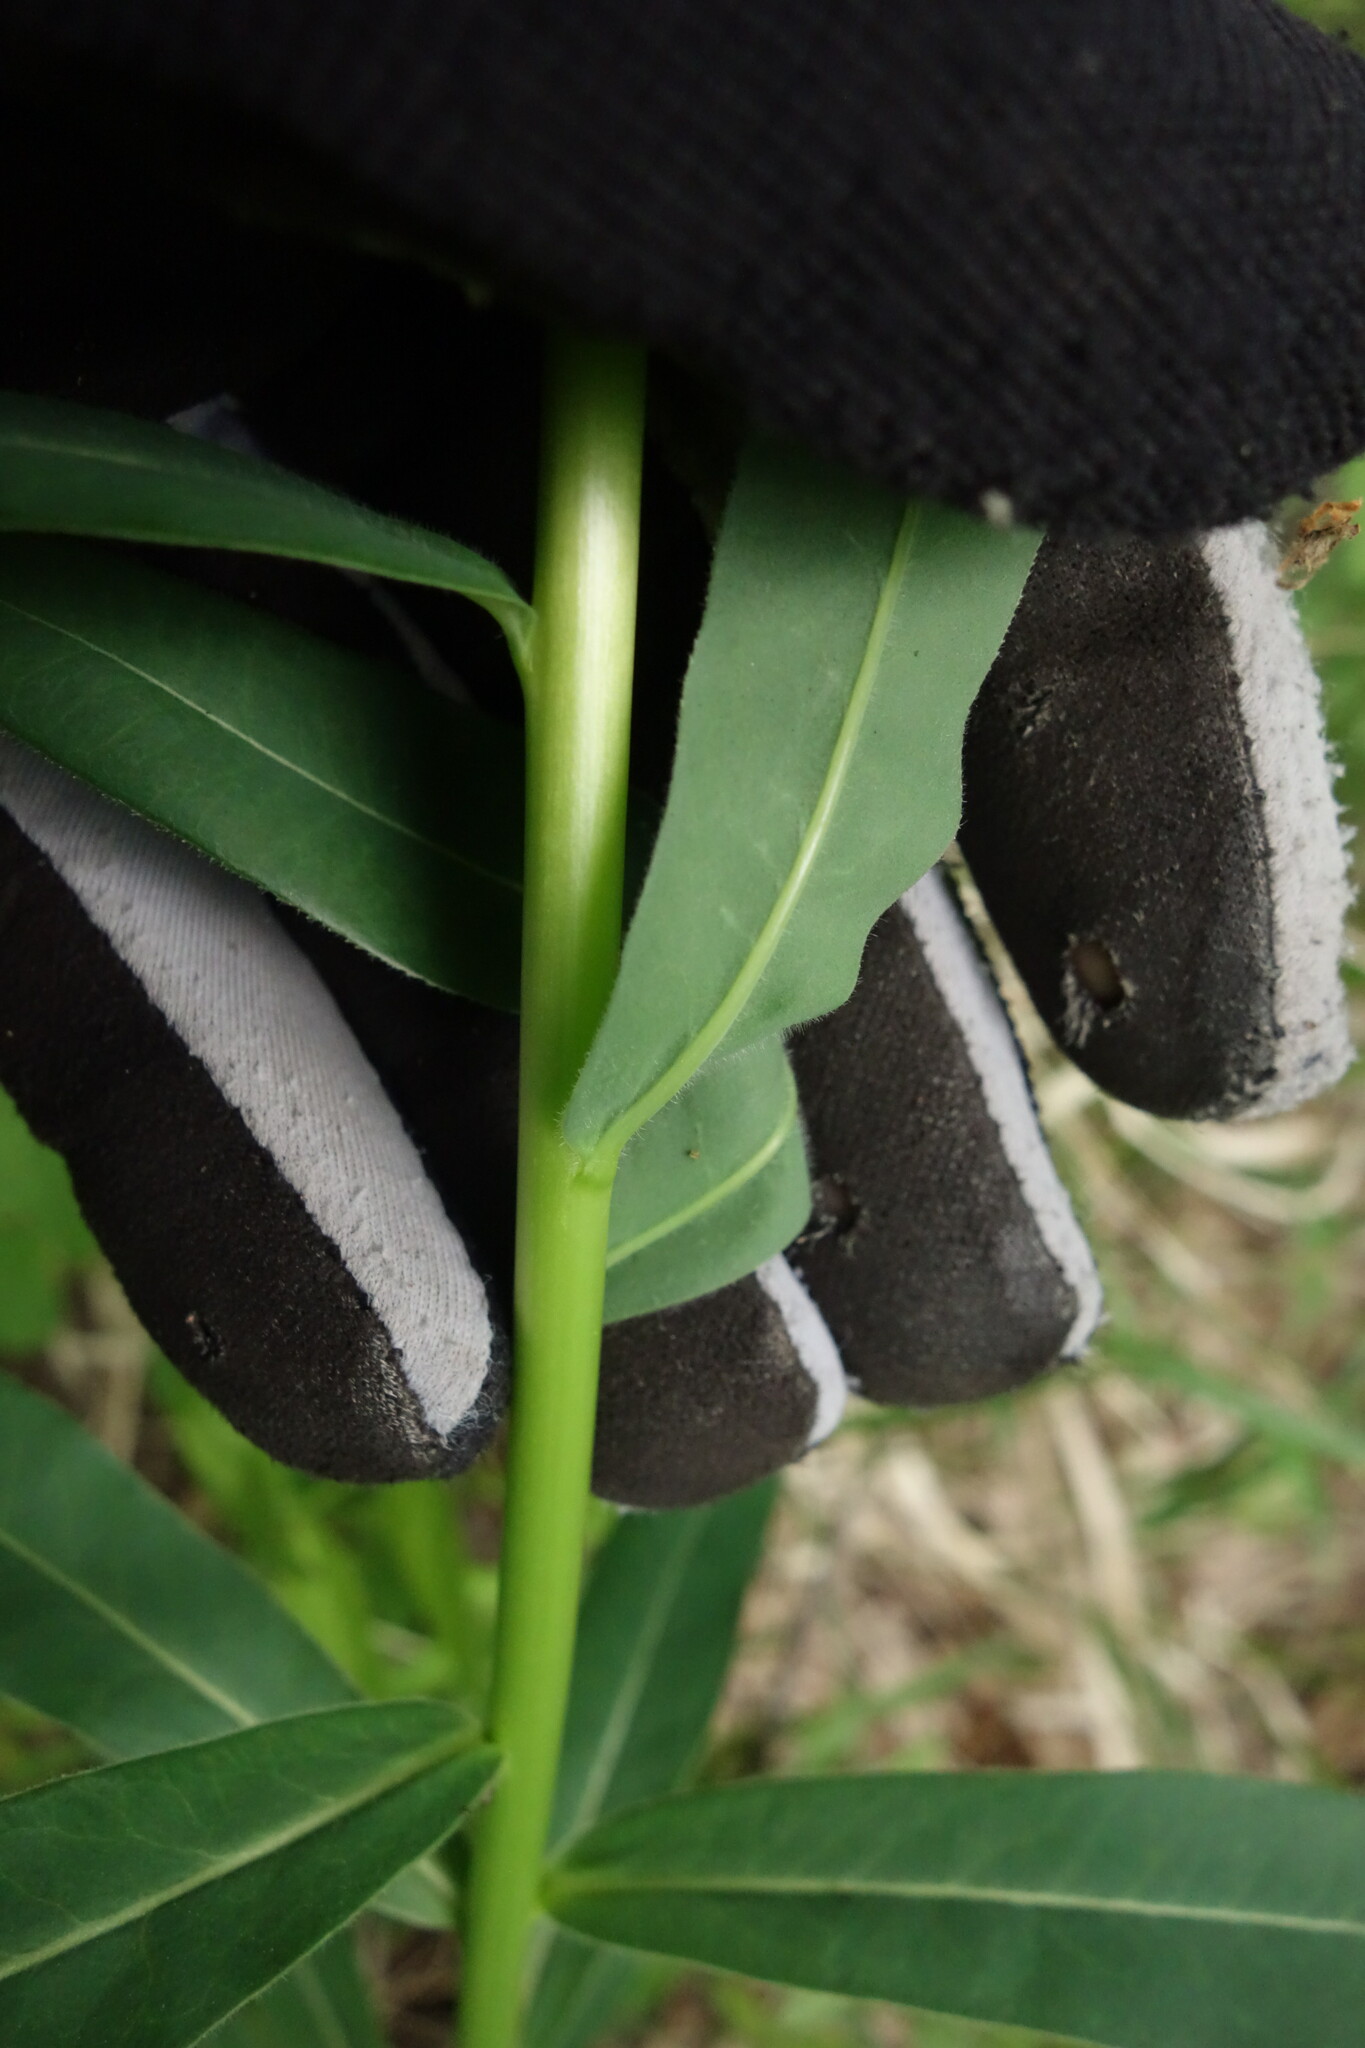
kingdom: Plantae
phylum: Tracheophyta
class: Magnoliopsida
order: Malpighiales
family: Euphorbiaceae
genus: Euphorbia
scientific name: Euphorbia semivillosa
